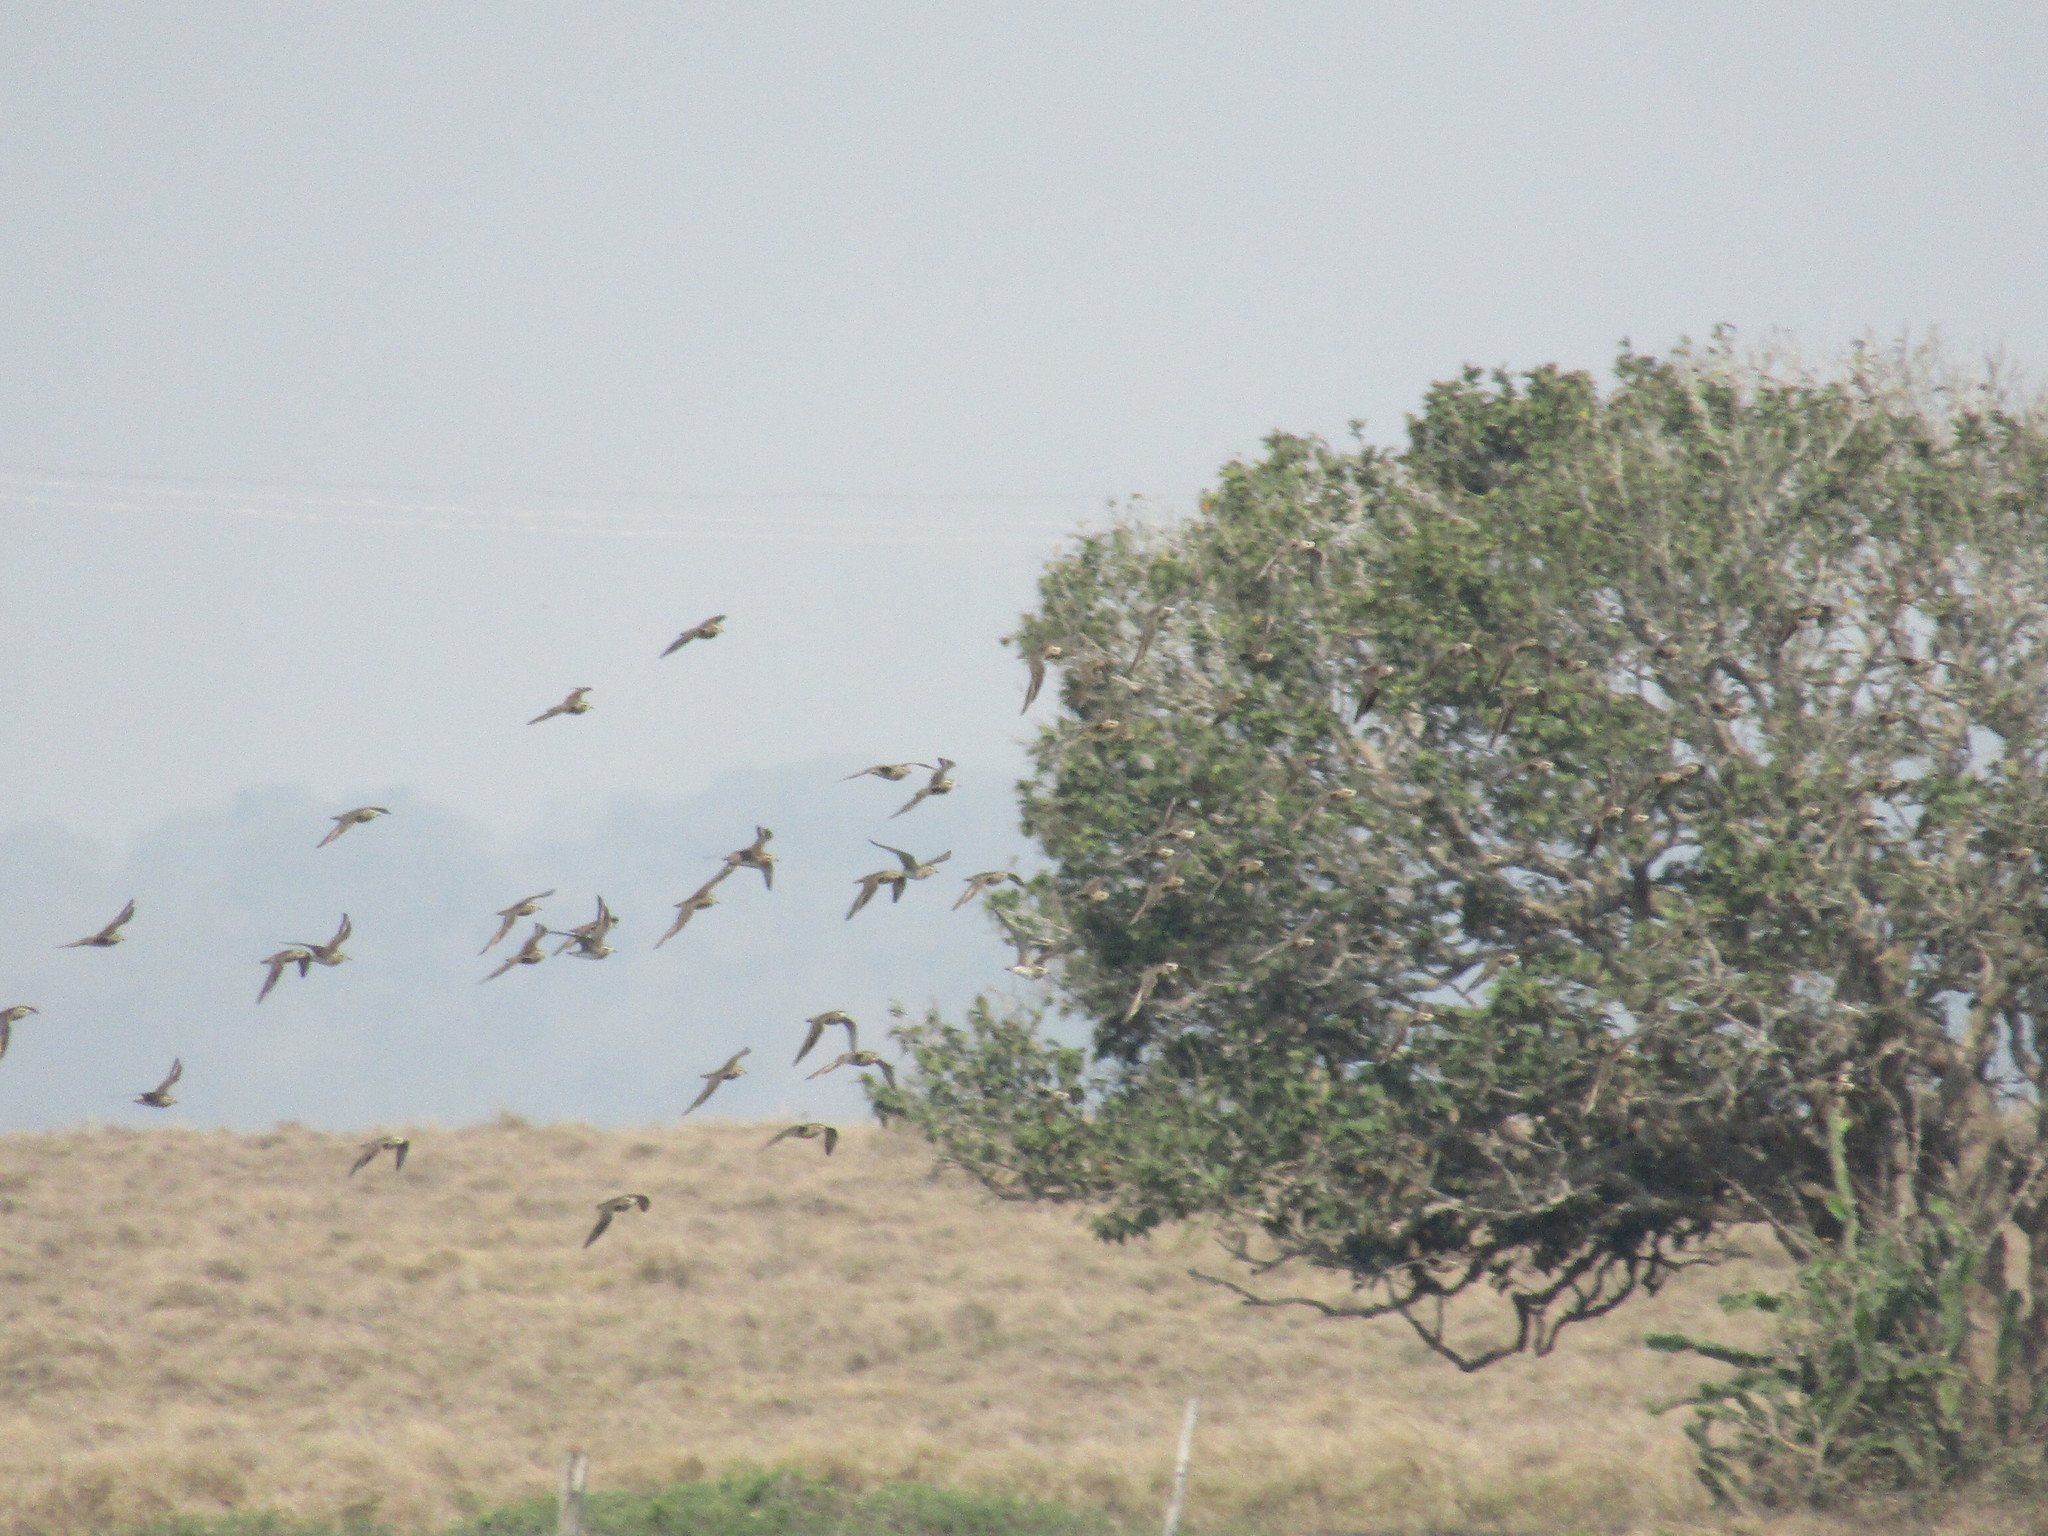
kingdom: Animalia
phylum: Chordata
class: Aves
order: Charadriiformes
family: Charadriidae
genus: Pluvialis
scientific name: Pluvialis squatarola
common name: Grey plover
